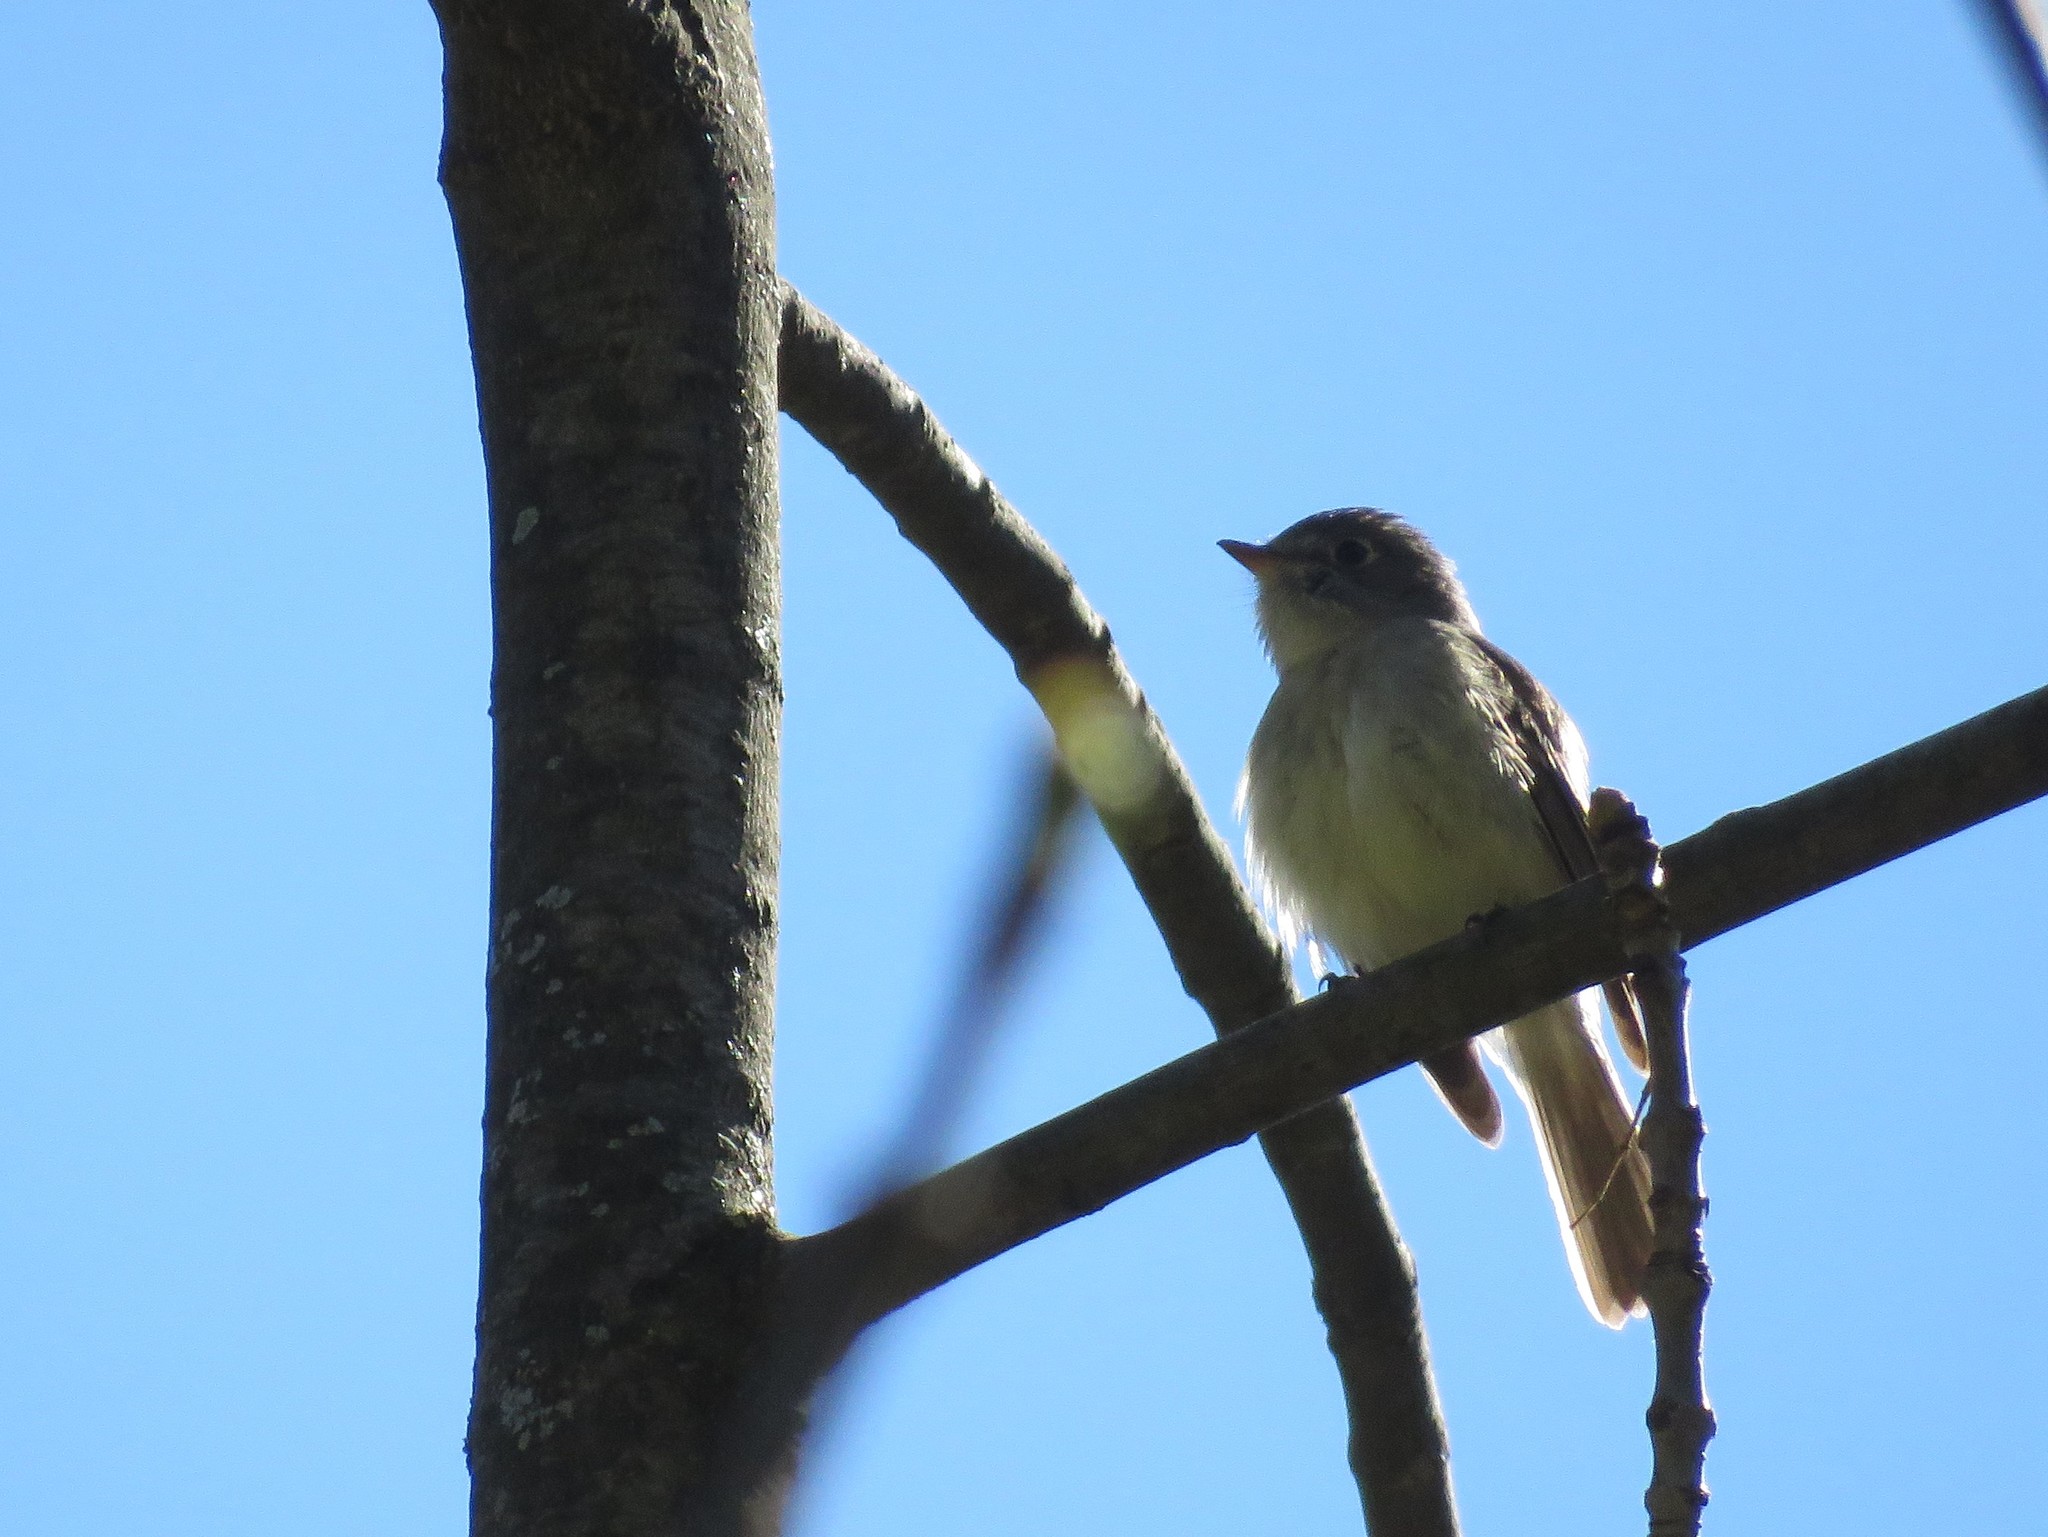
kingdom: Animalia
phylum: Chordata
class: Aves
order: Passeriformes
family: Tyrannidae
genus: Empidonax
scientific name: Empidonax minimus
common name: Least flycatcher
